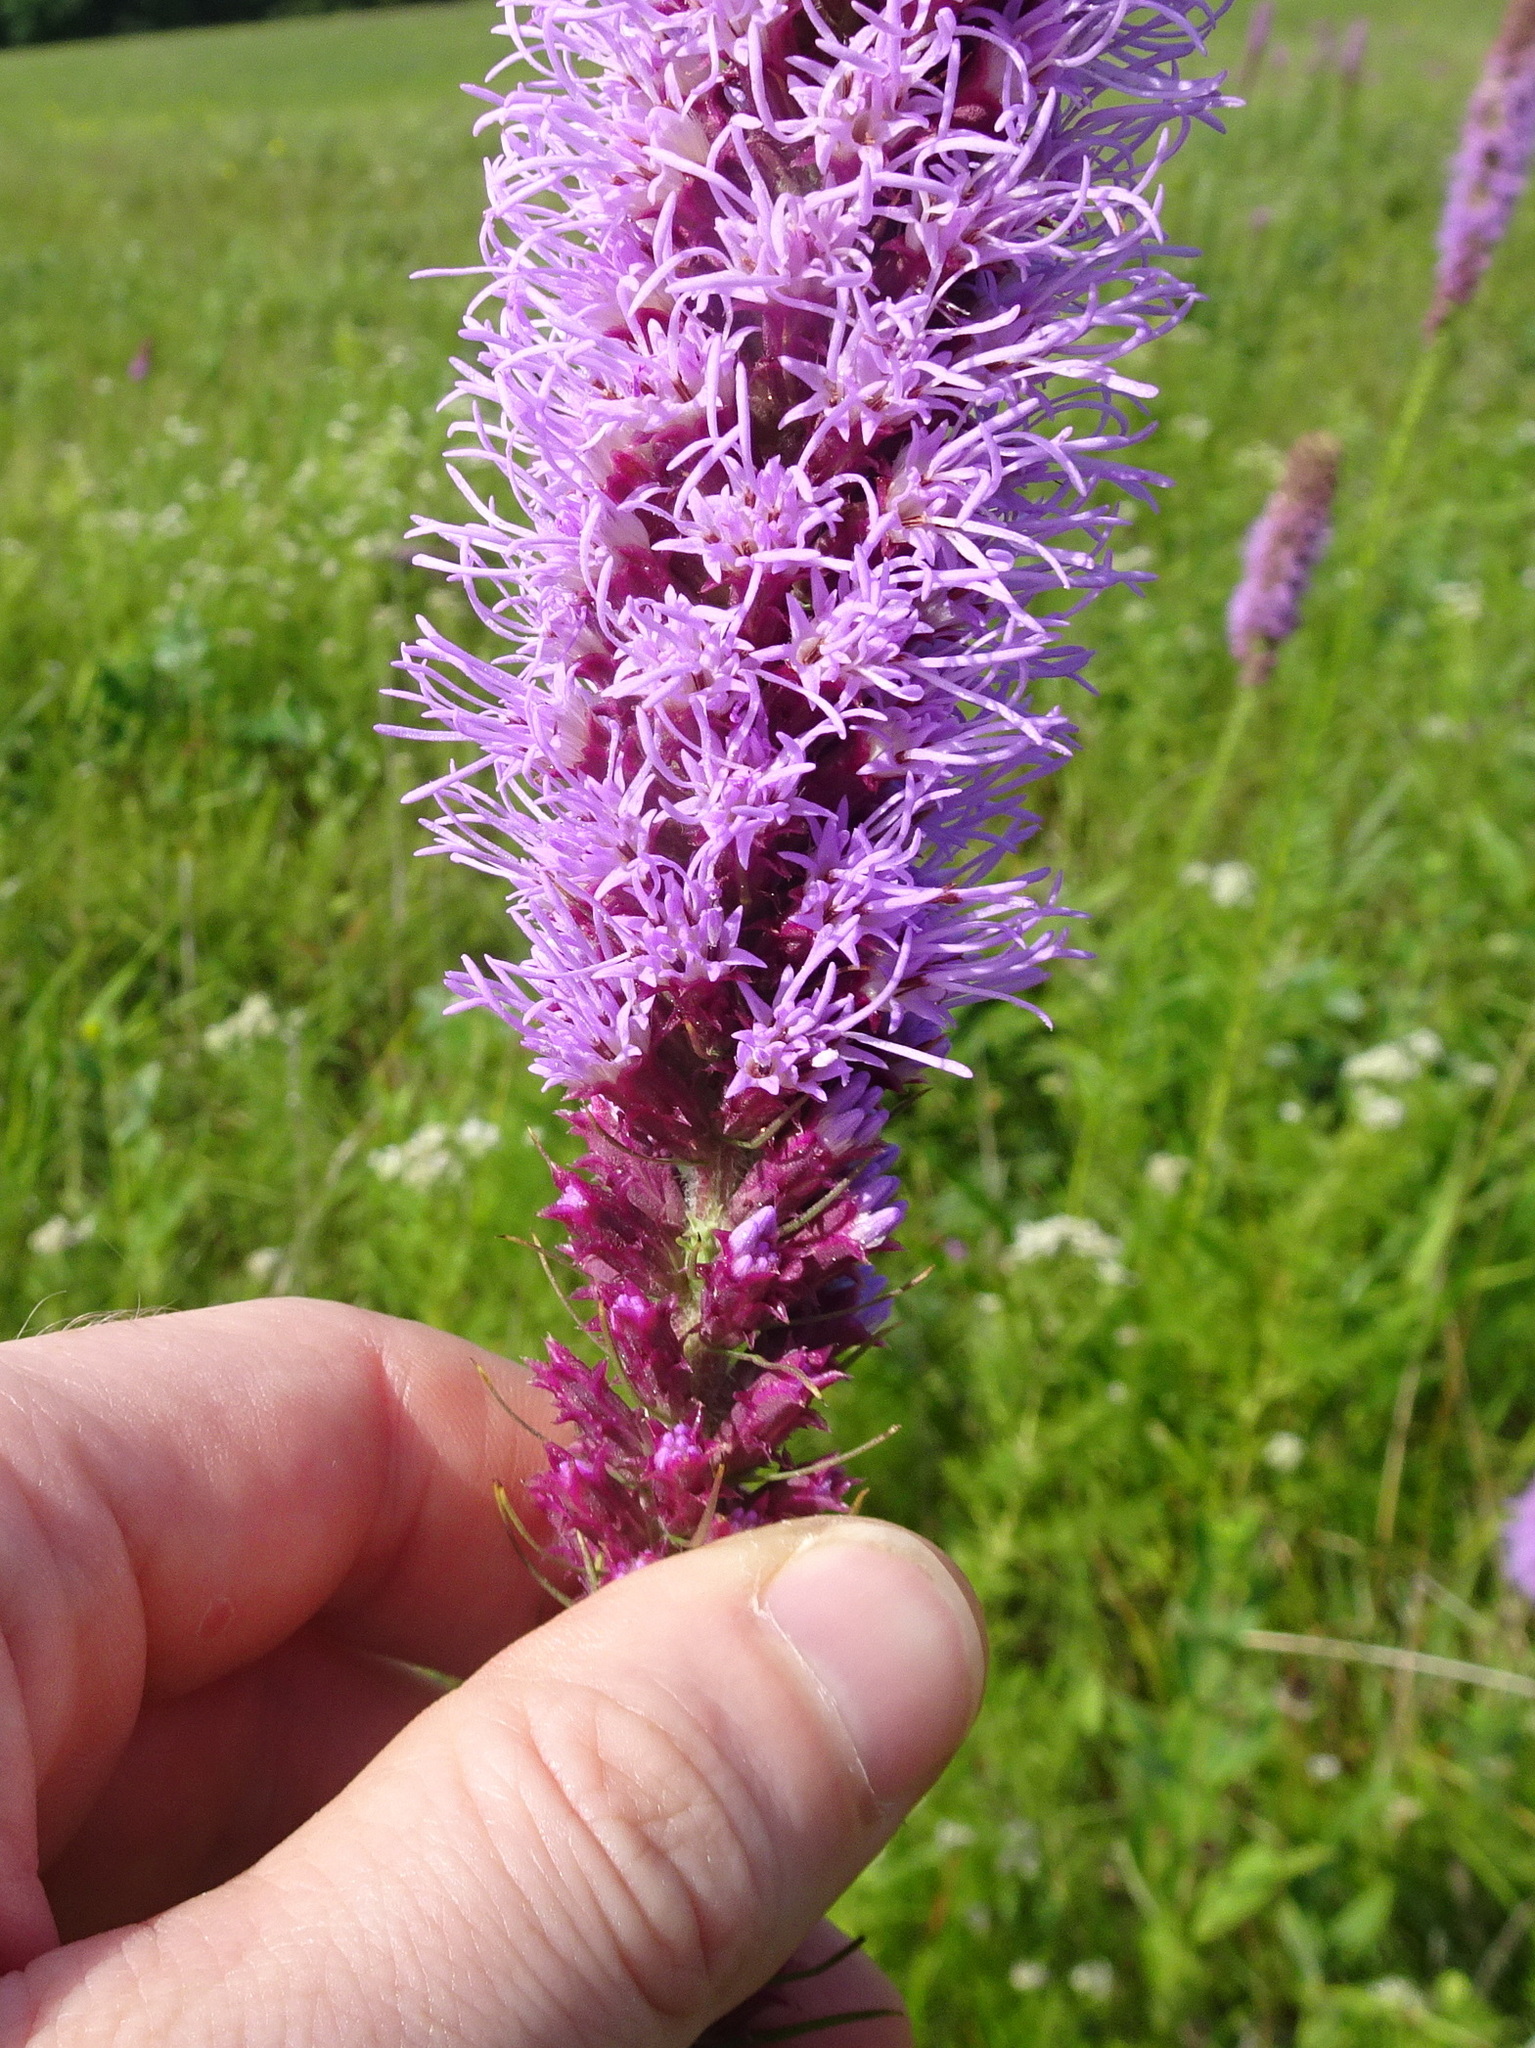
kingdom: Plantae
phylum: Tracheophyta
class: Magnoliopsida
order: Asterales
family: Asteraceae
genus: Liatris
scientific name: Liatris pycnostachya
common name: Cattail gayfeather
